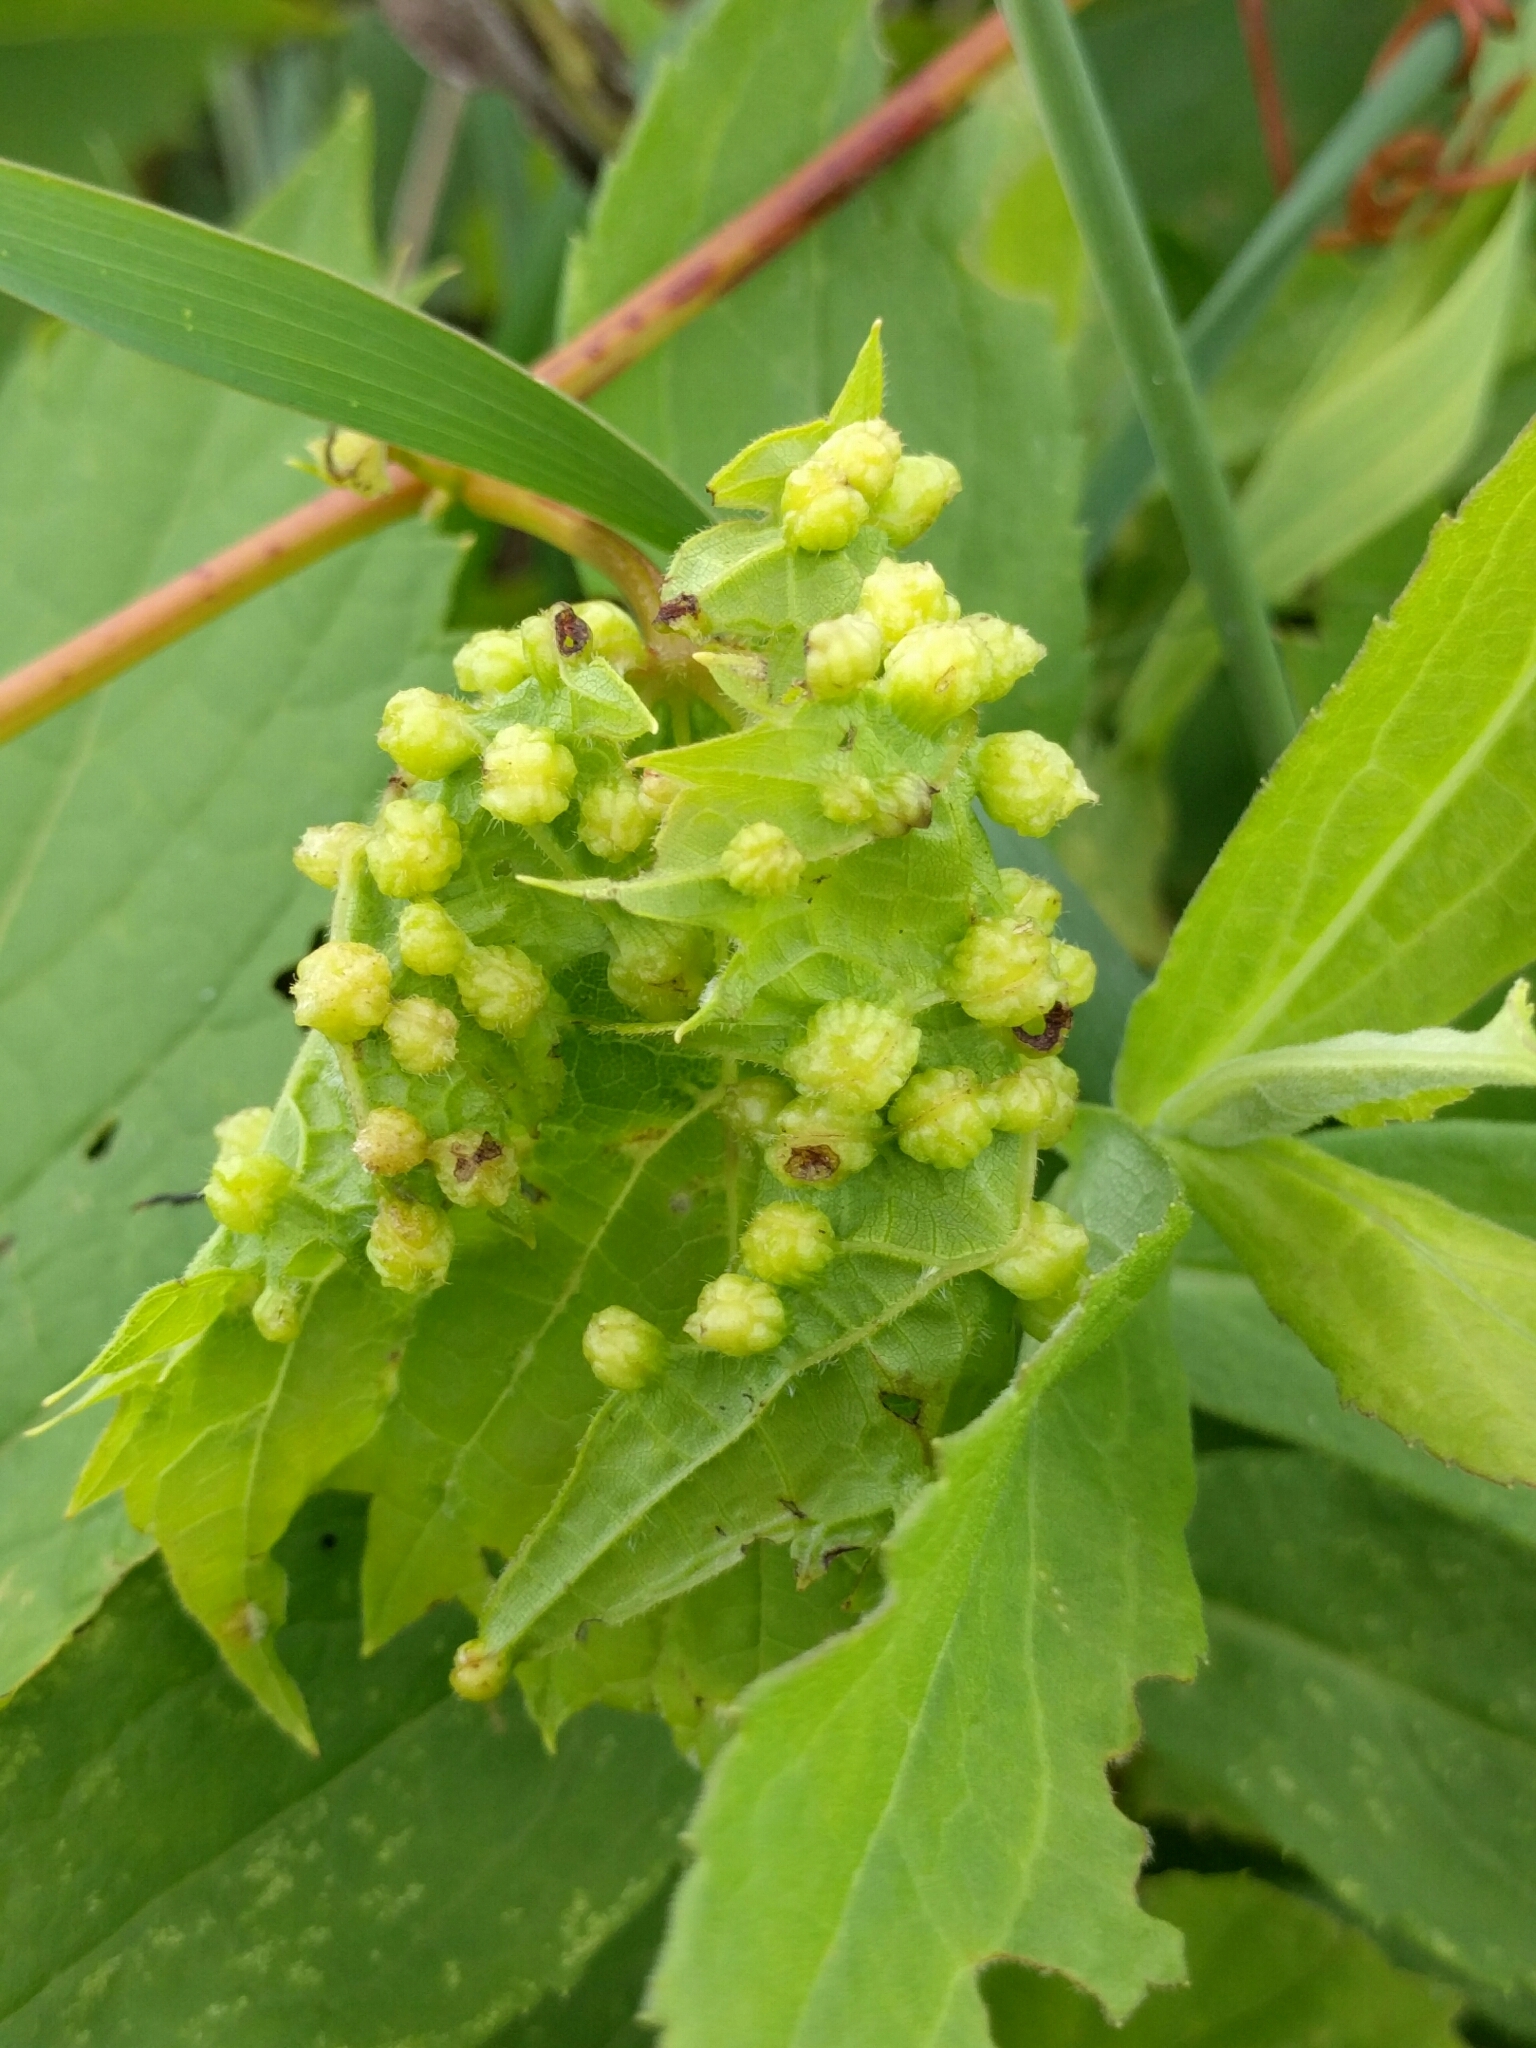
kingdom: Animalia
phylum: Arthropoda
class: Insecta
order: Hemiptera
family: Phylloxeridae
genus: Daktulosphaira
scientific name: Daktulosphaira vitifoliae
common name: Grape phylloxera
